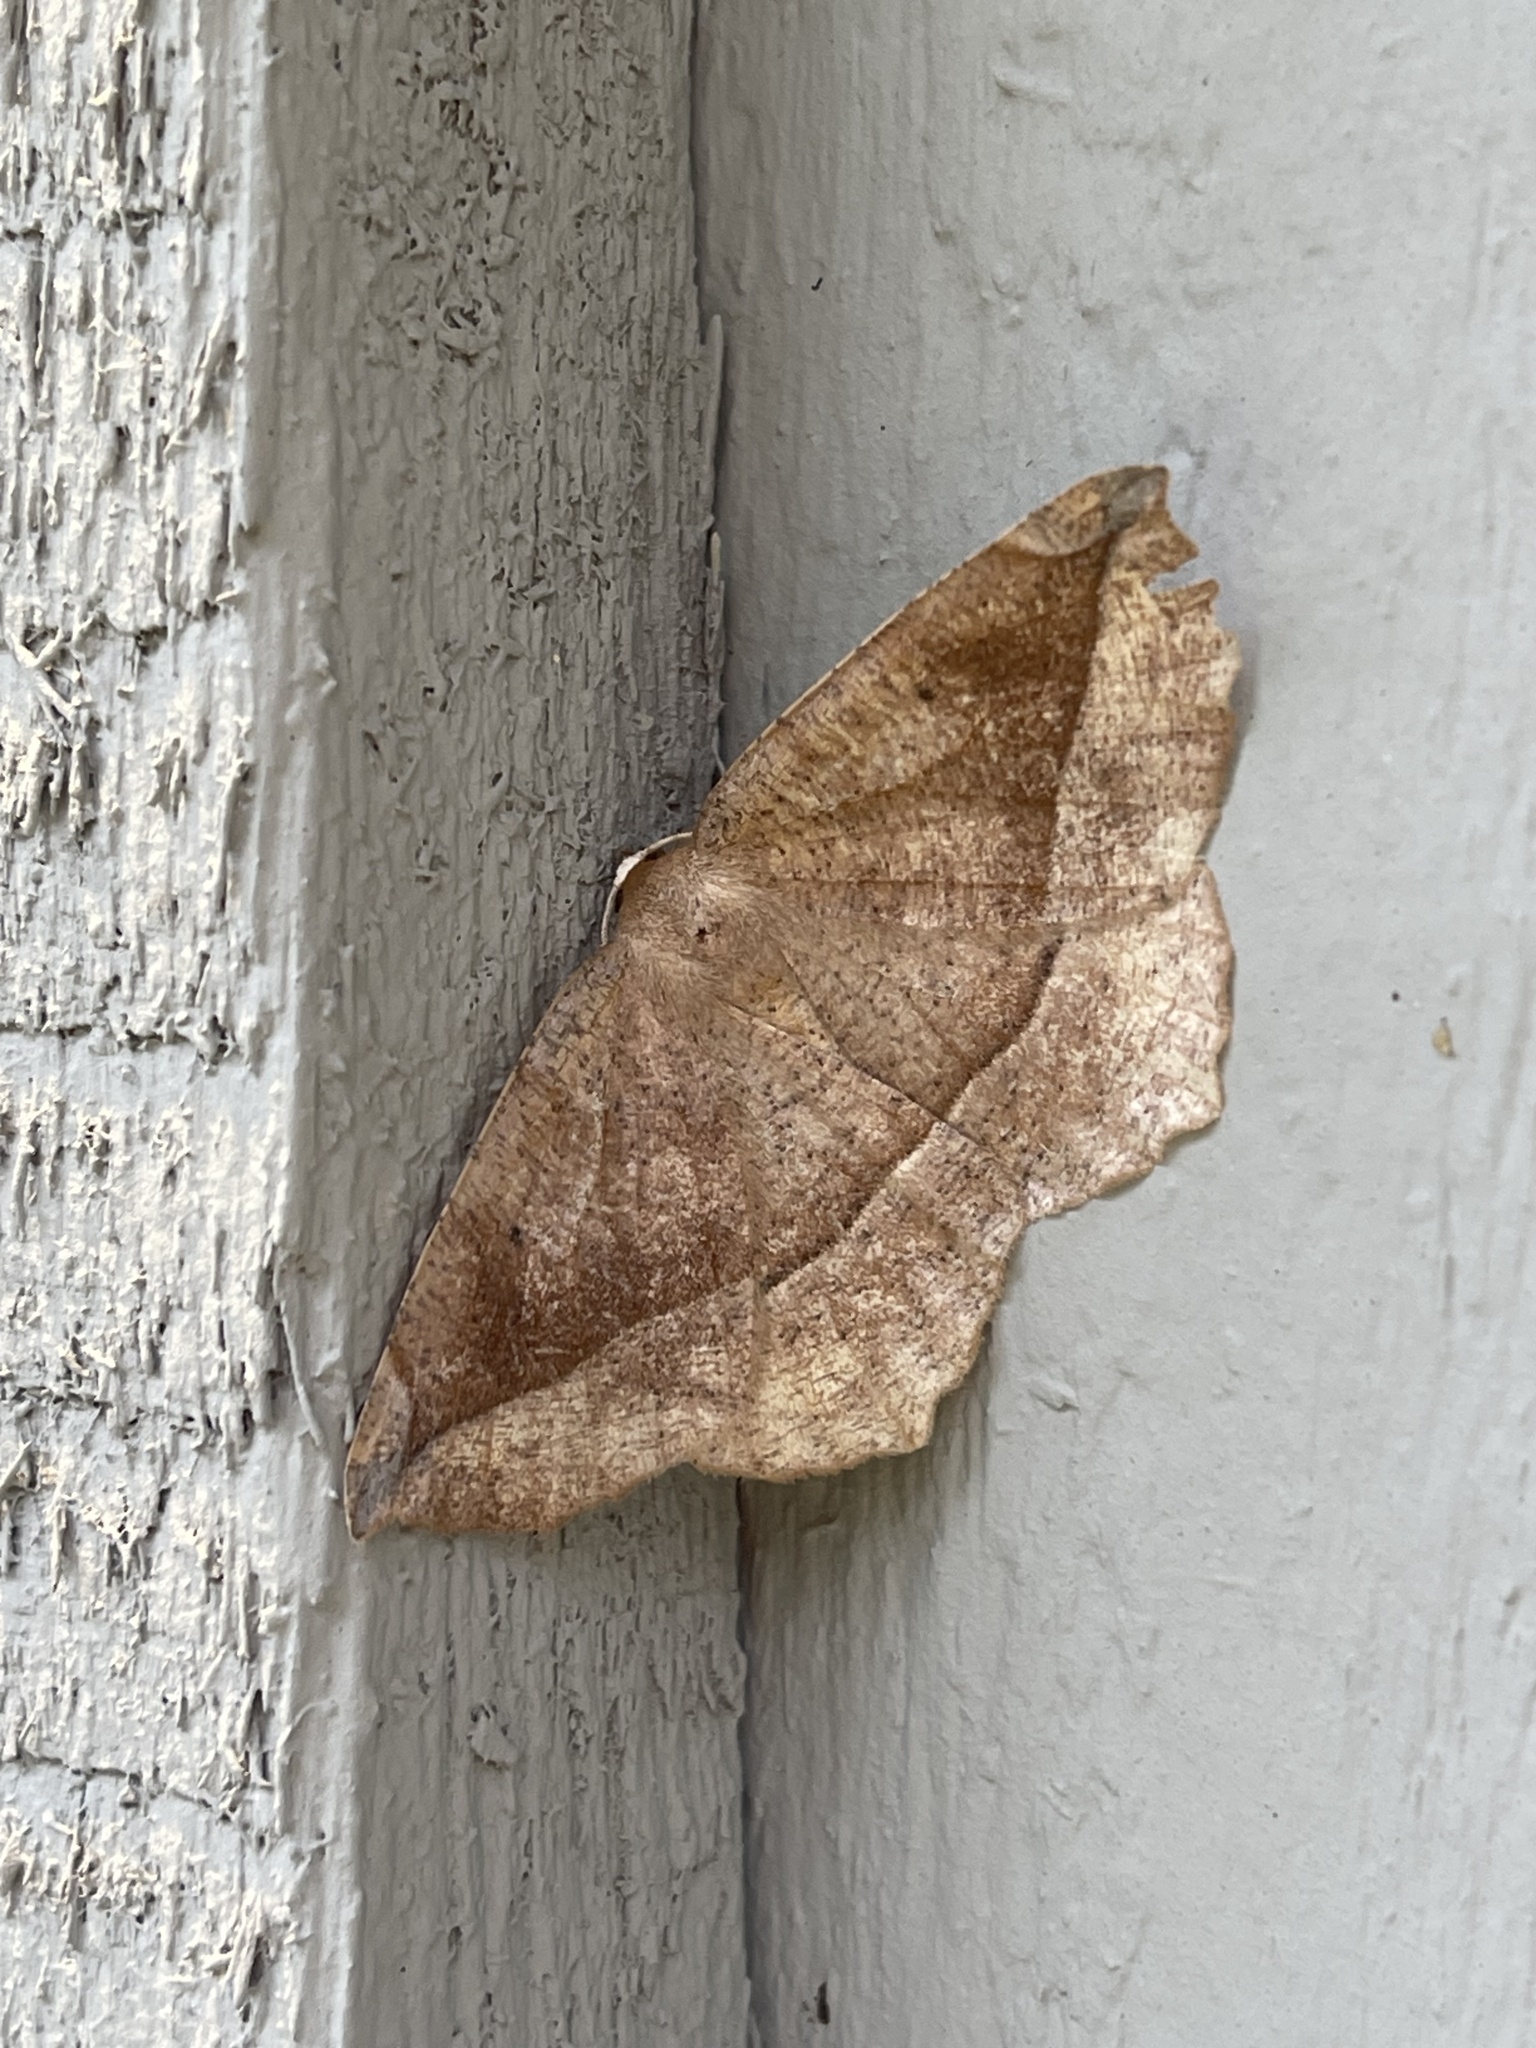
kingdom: Animalia
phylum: Arthropoda
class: Insecta
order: Lepidoptera
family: Geometridae
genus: Eutrapela
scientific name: Eutrapela clemataria
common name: Curved-toothed geometer
